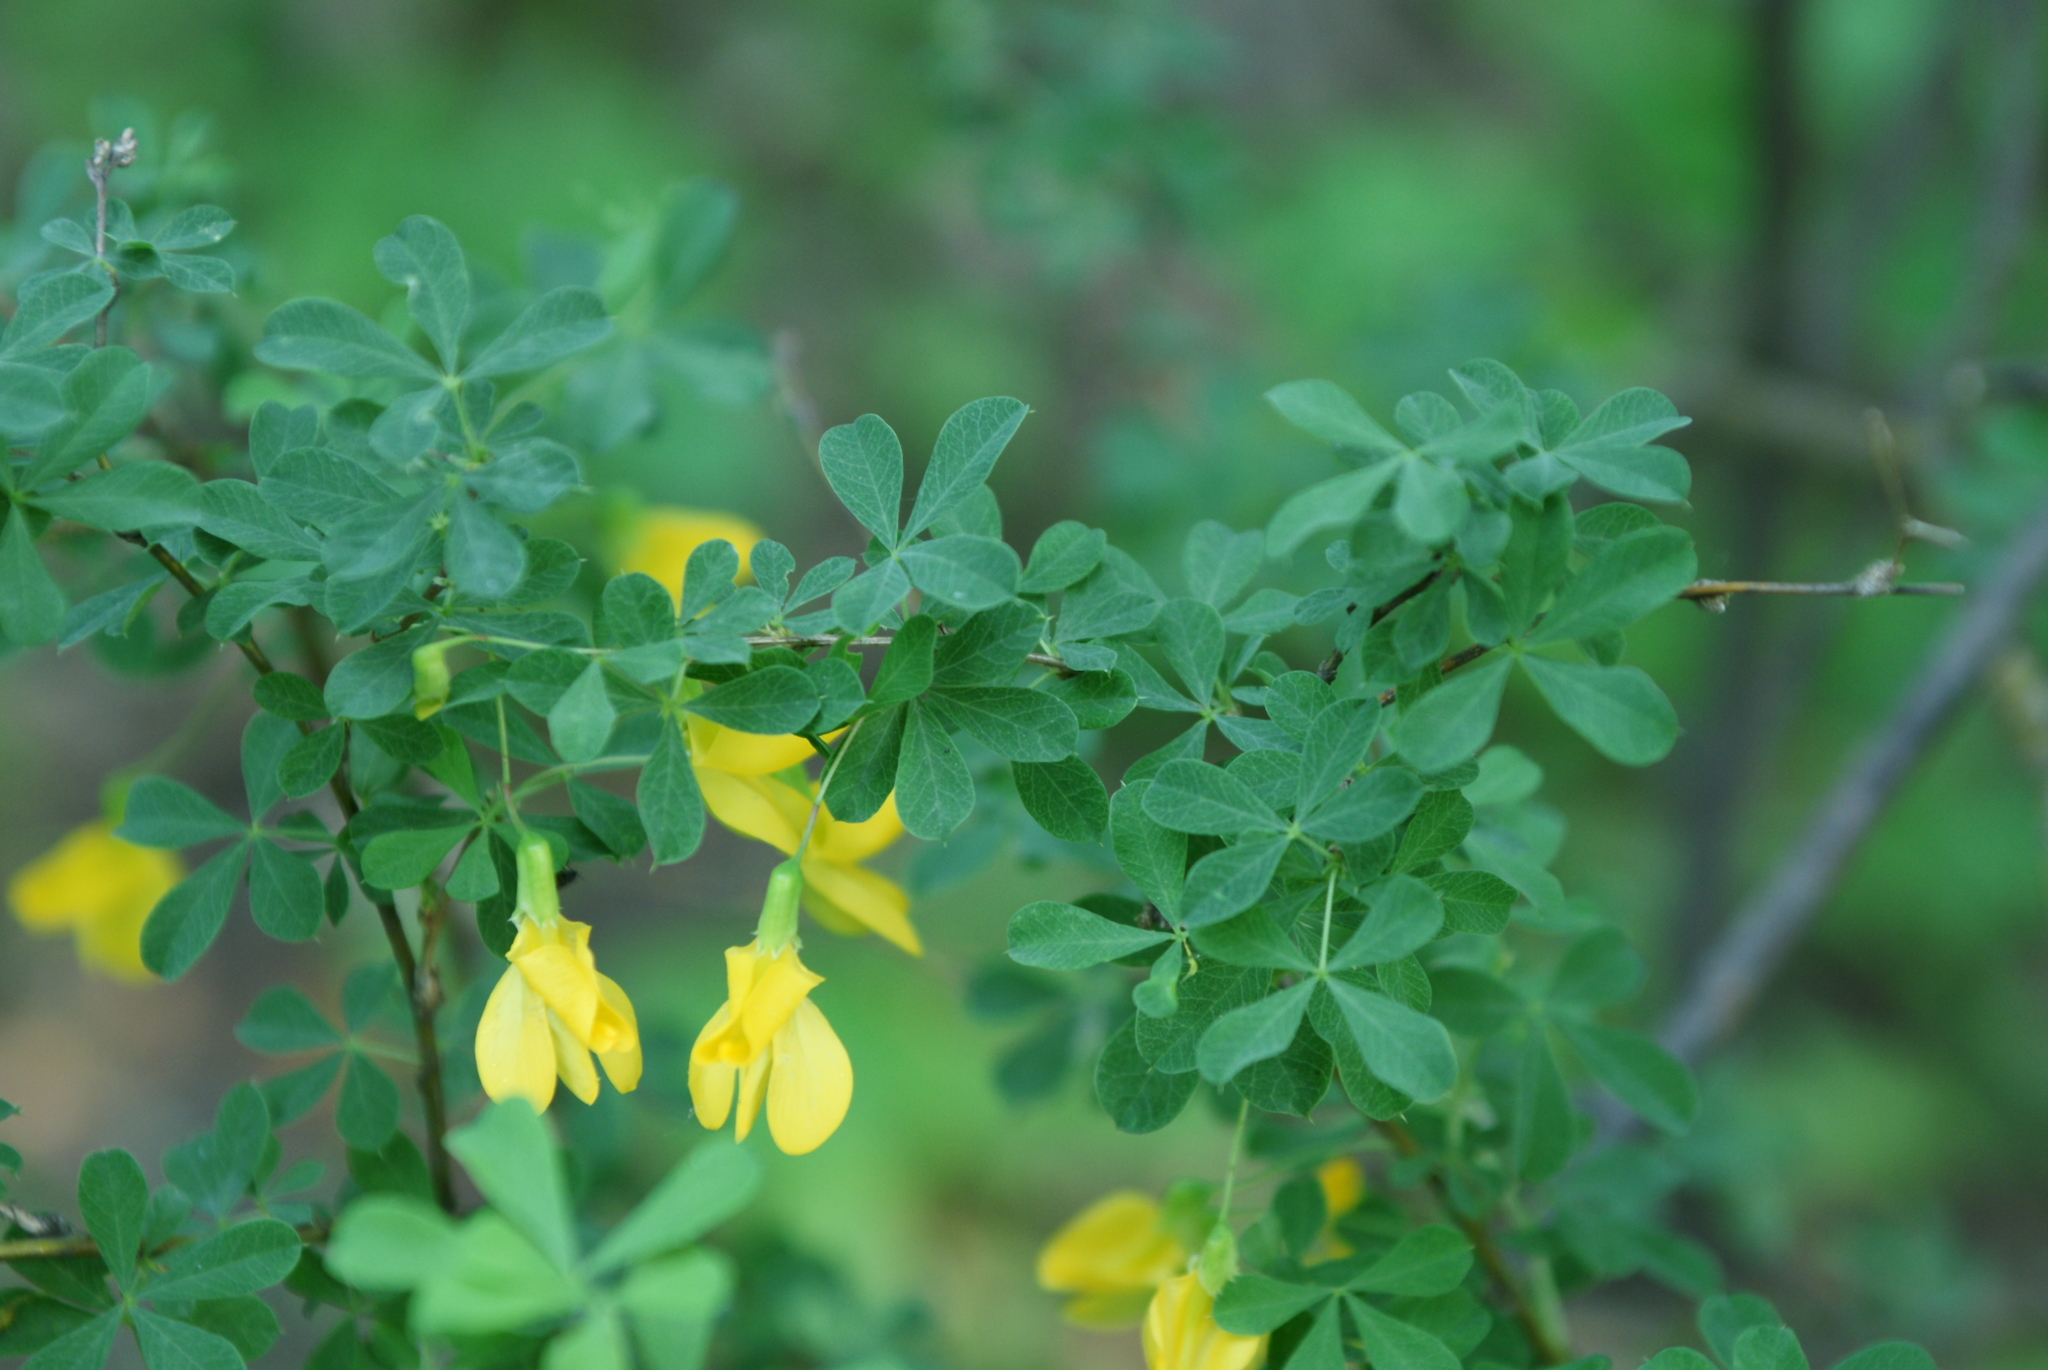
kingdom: Plantae
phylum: Tracheophyta
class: Magnoliopsida
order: Fabales
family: Fabaceae
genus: Caragana
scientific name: Caragana frutex
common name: Russian peashrub
